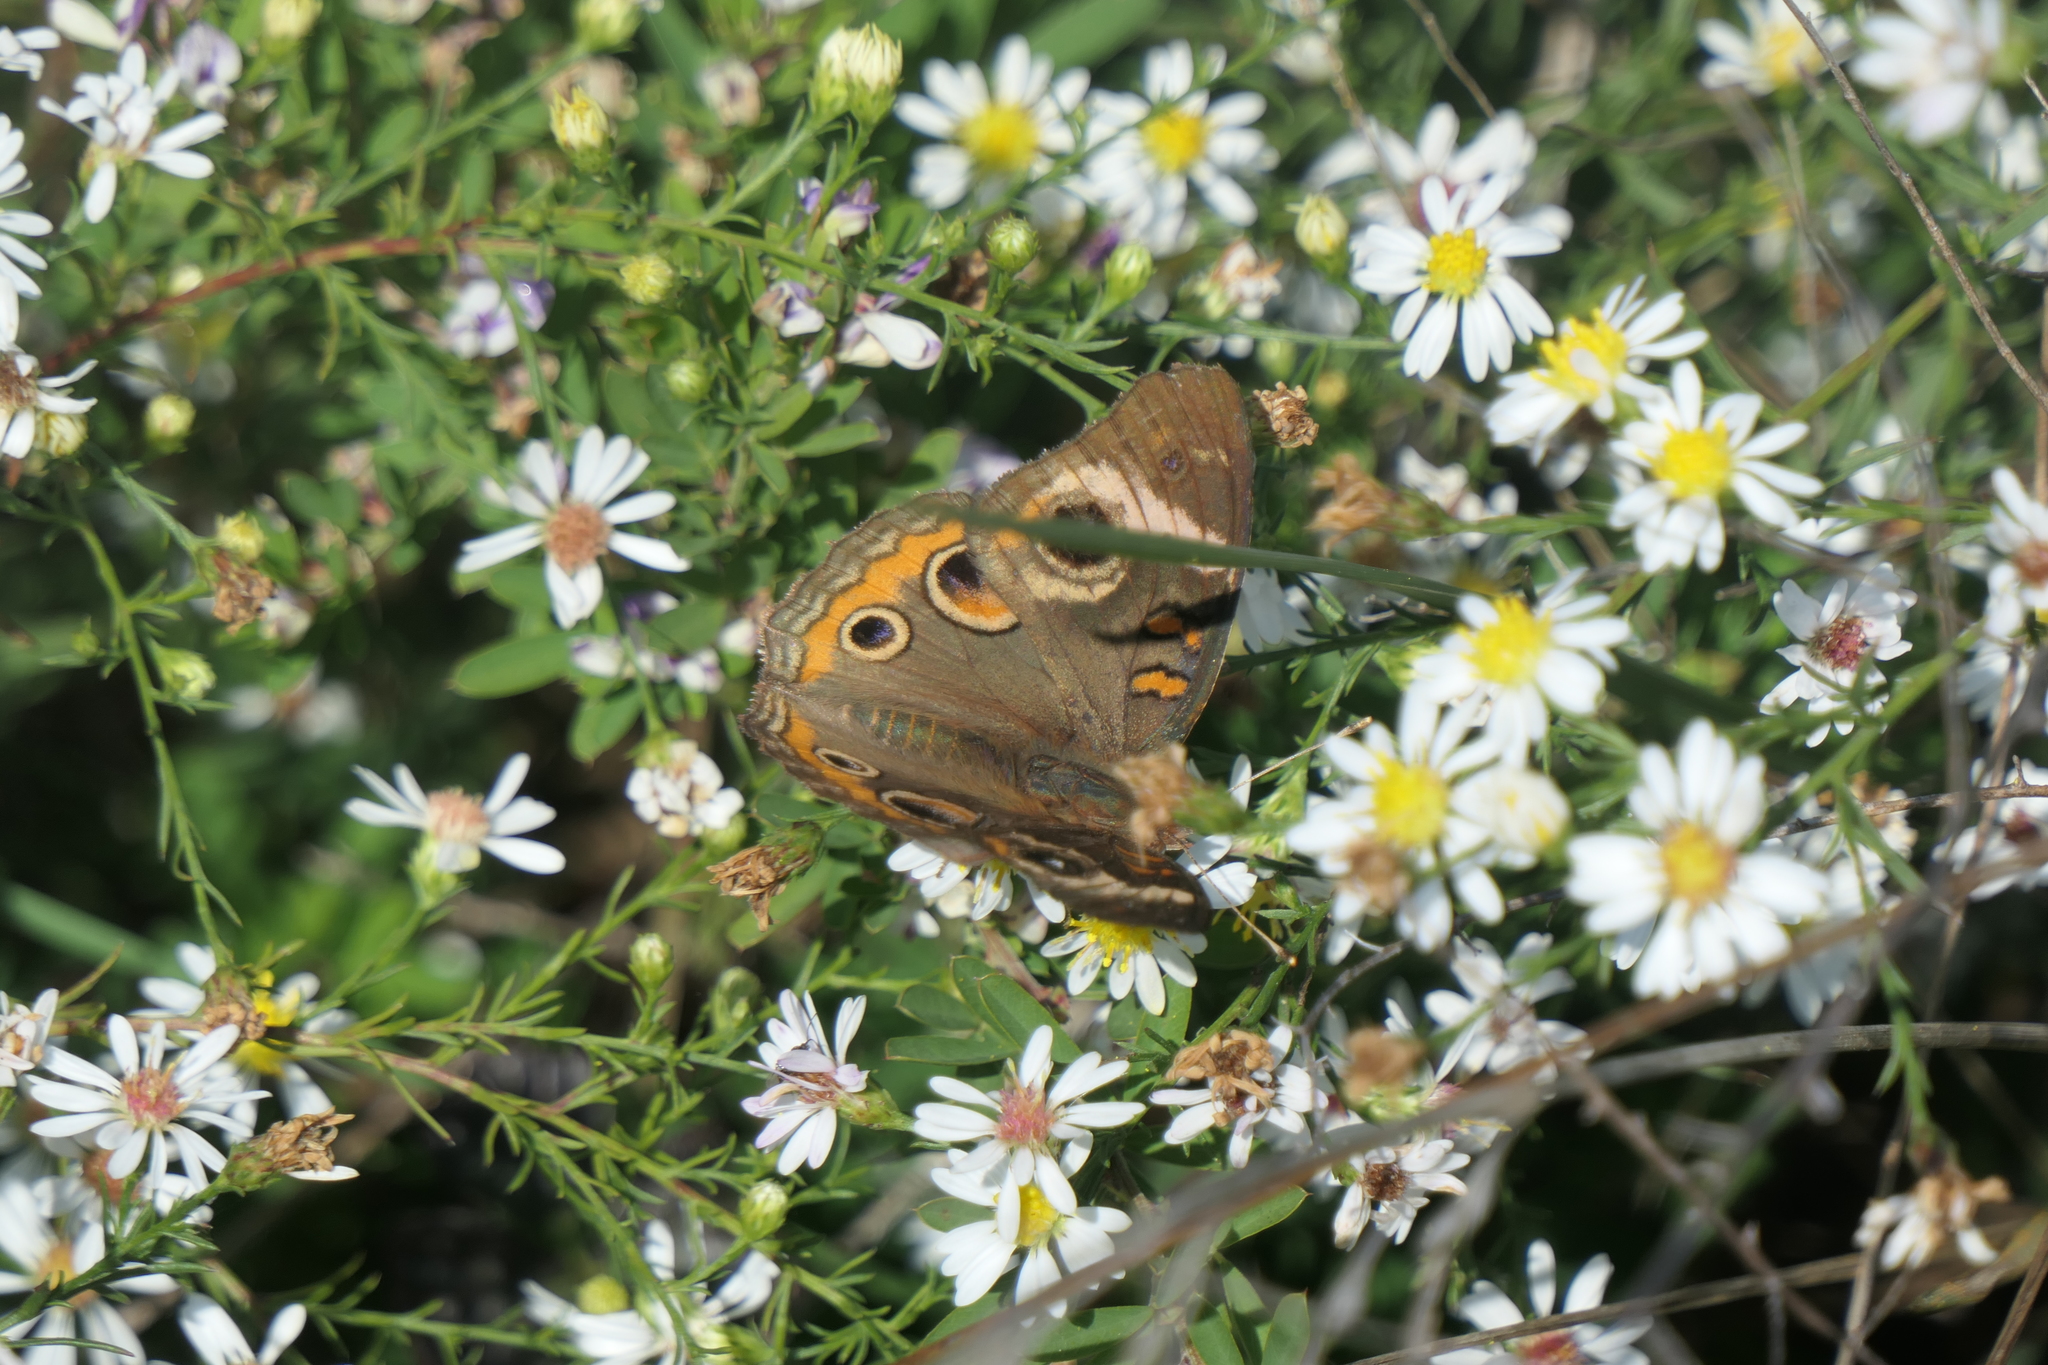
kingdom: Animalia
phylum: Arthropoda
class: Insecta
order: Lepidoptera
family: Nymphalidae
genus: Junonia
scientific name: Junonia coenia
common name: Common buckeye
